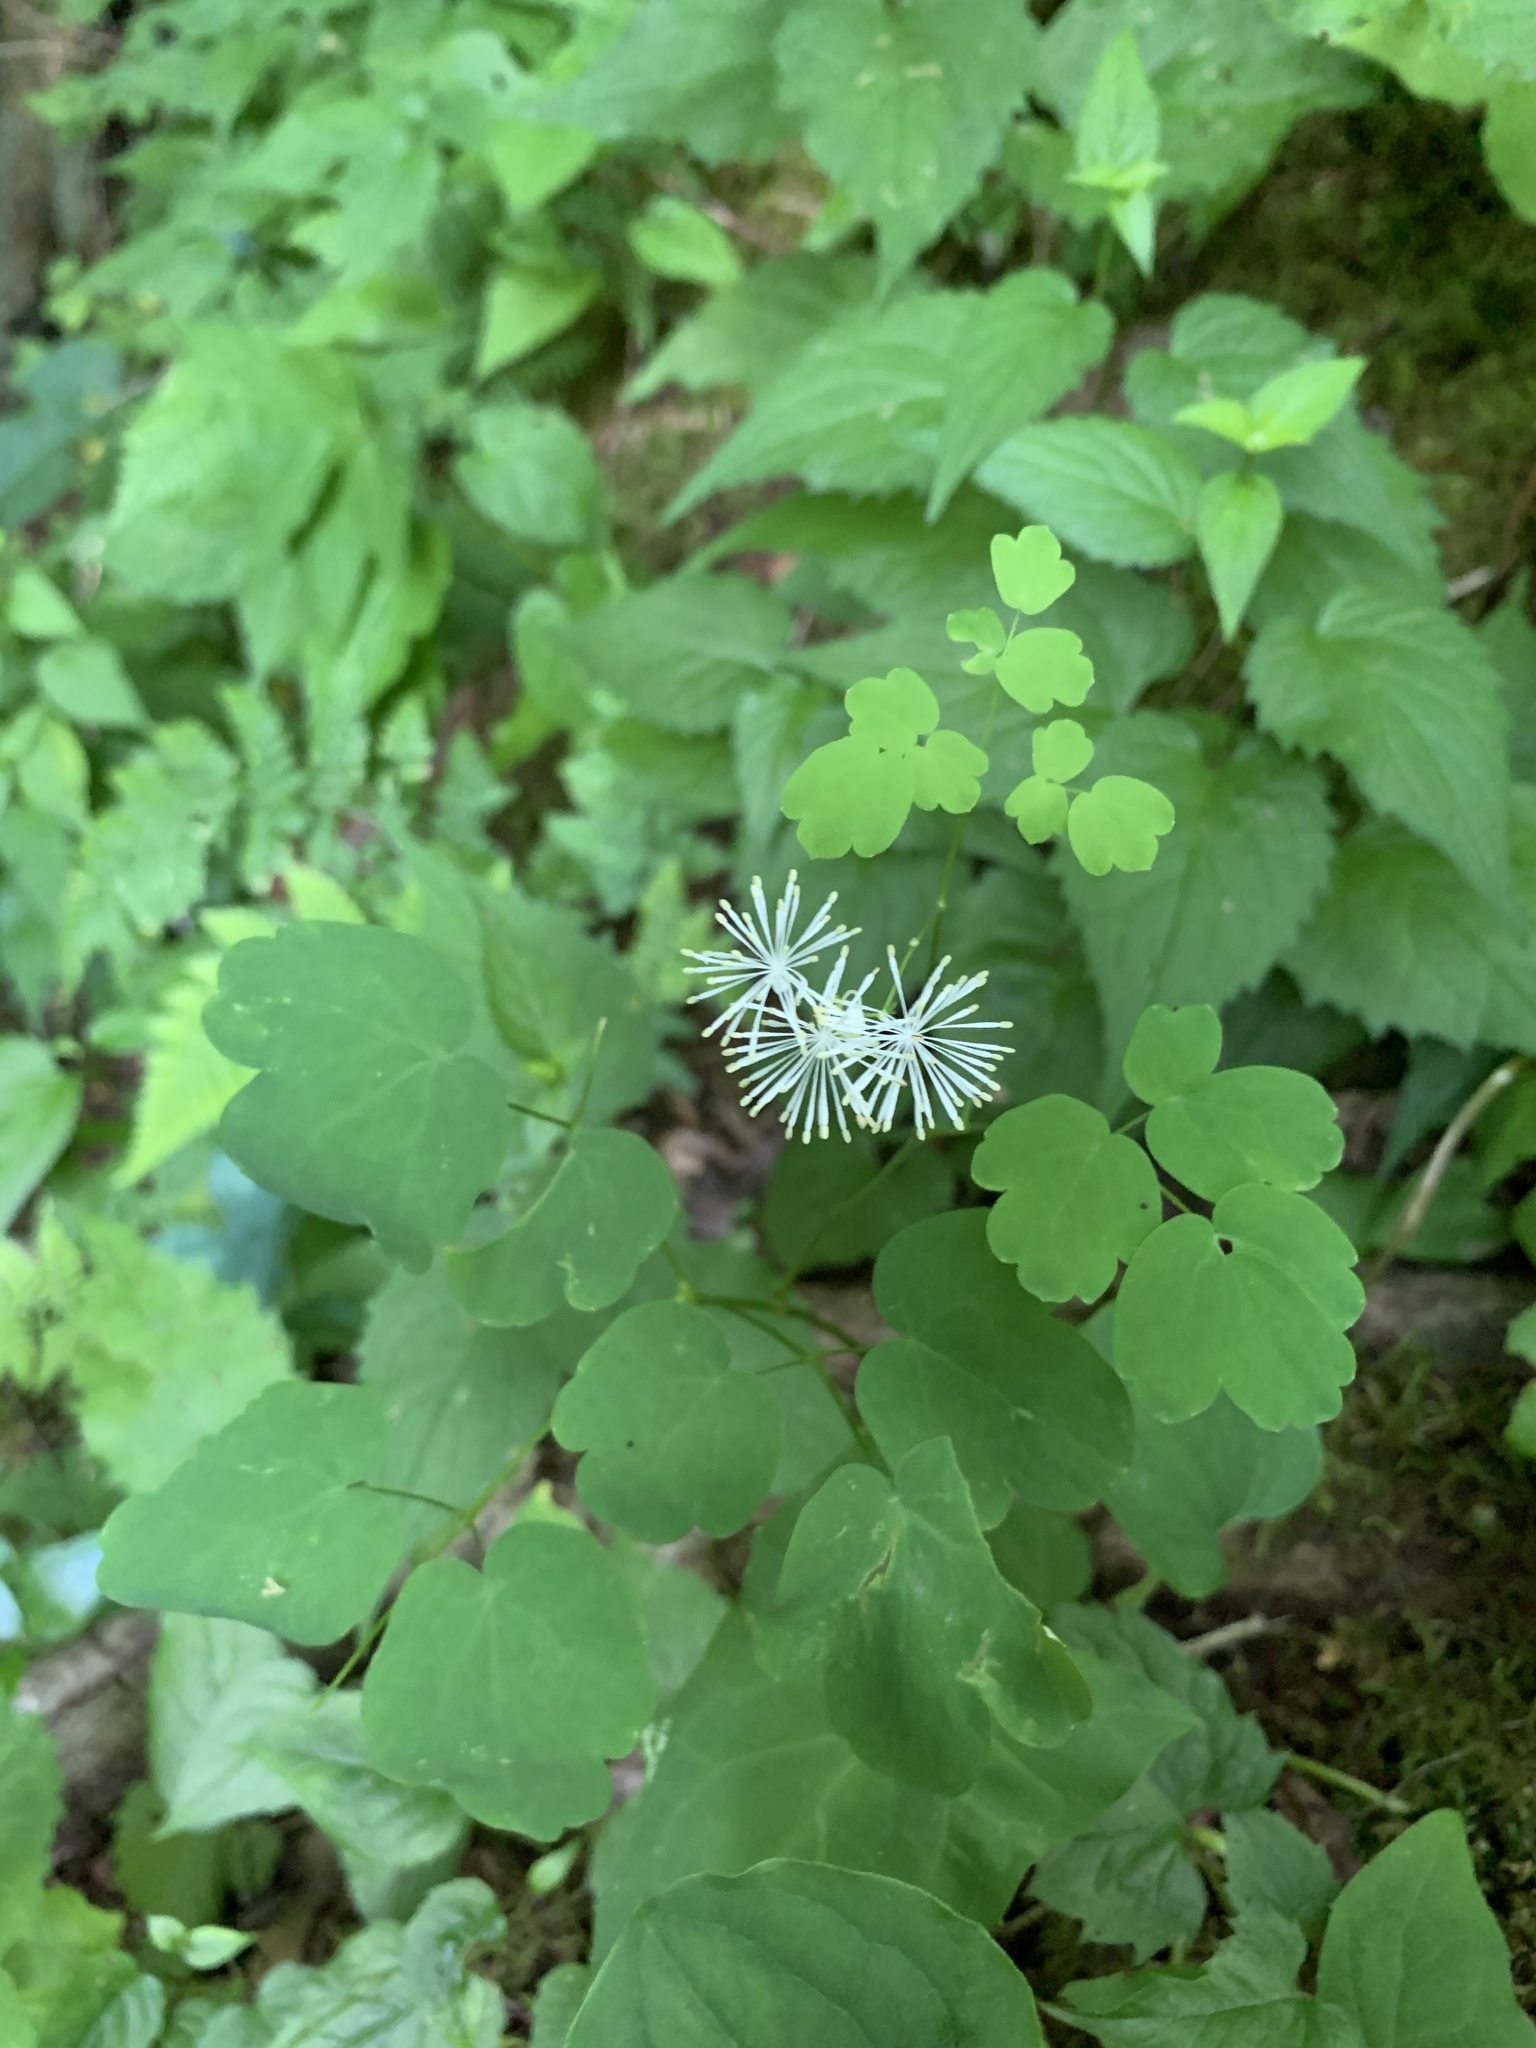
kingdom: Plantae
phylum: Tracheophyta
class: Magnoliopsida
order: Ranunculales
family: Ranunculaceae
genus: Thalictrum
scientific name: Thalictrum pubescens
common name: King-of-the-meadow
